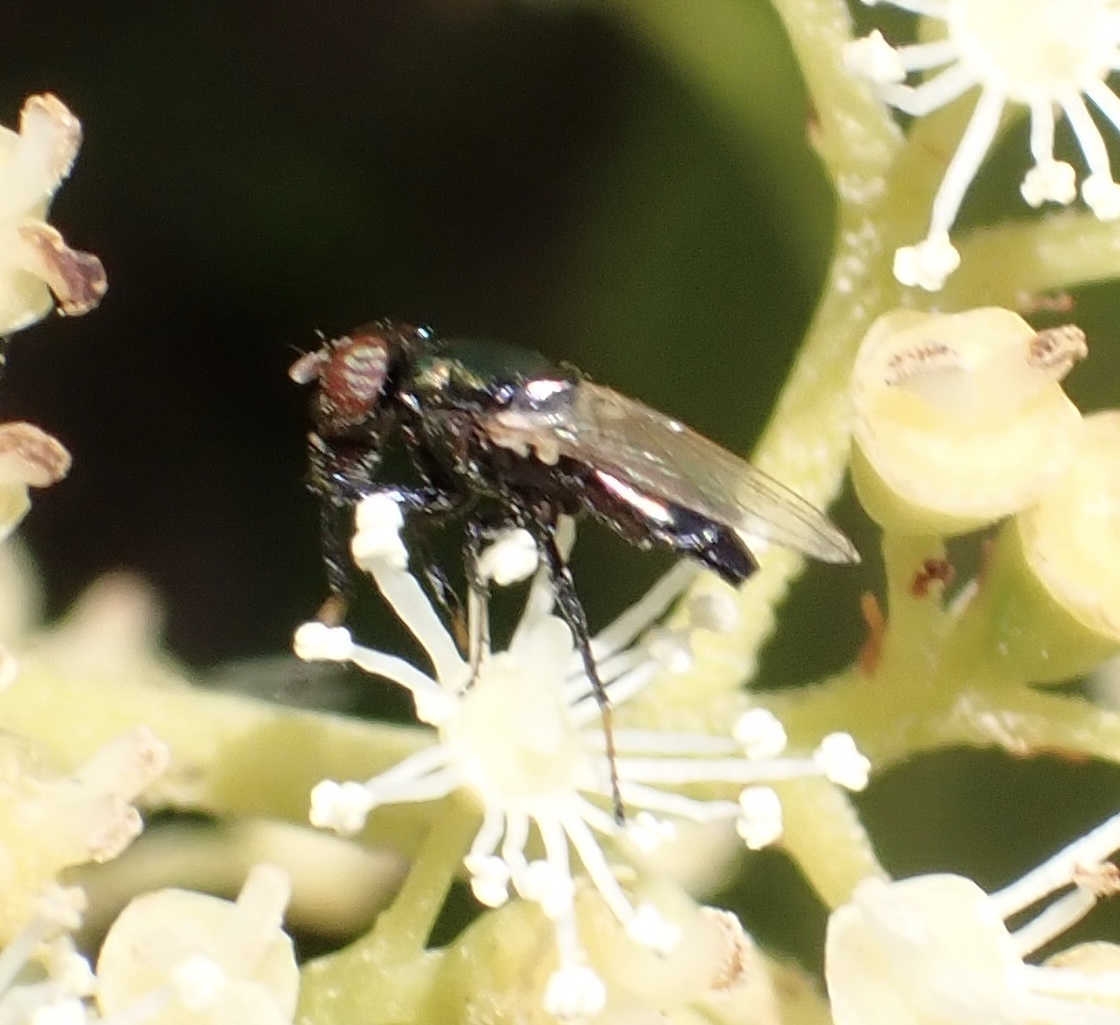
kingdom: Animalia
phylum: Arthropoda
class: Insecta
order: Diptera
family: Ulidiidae
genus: Physiphora
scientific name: Physiphora alceae
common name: Picture-winged fly
